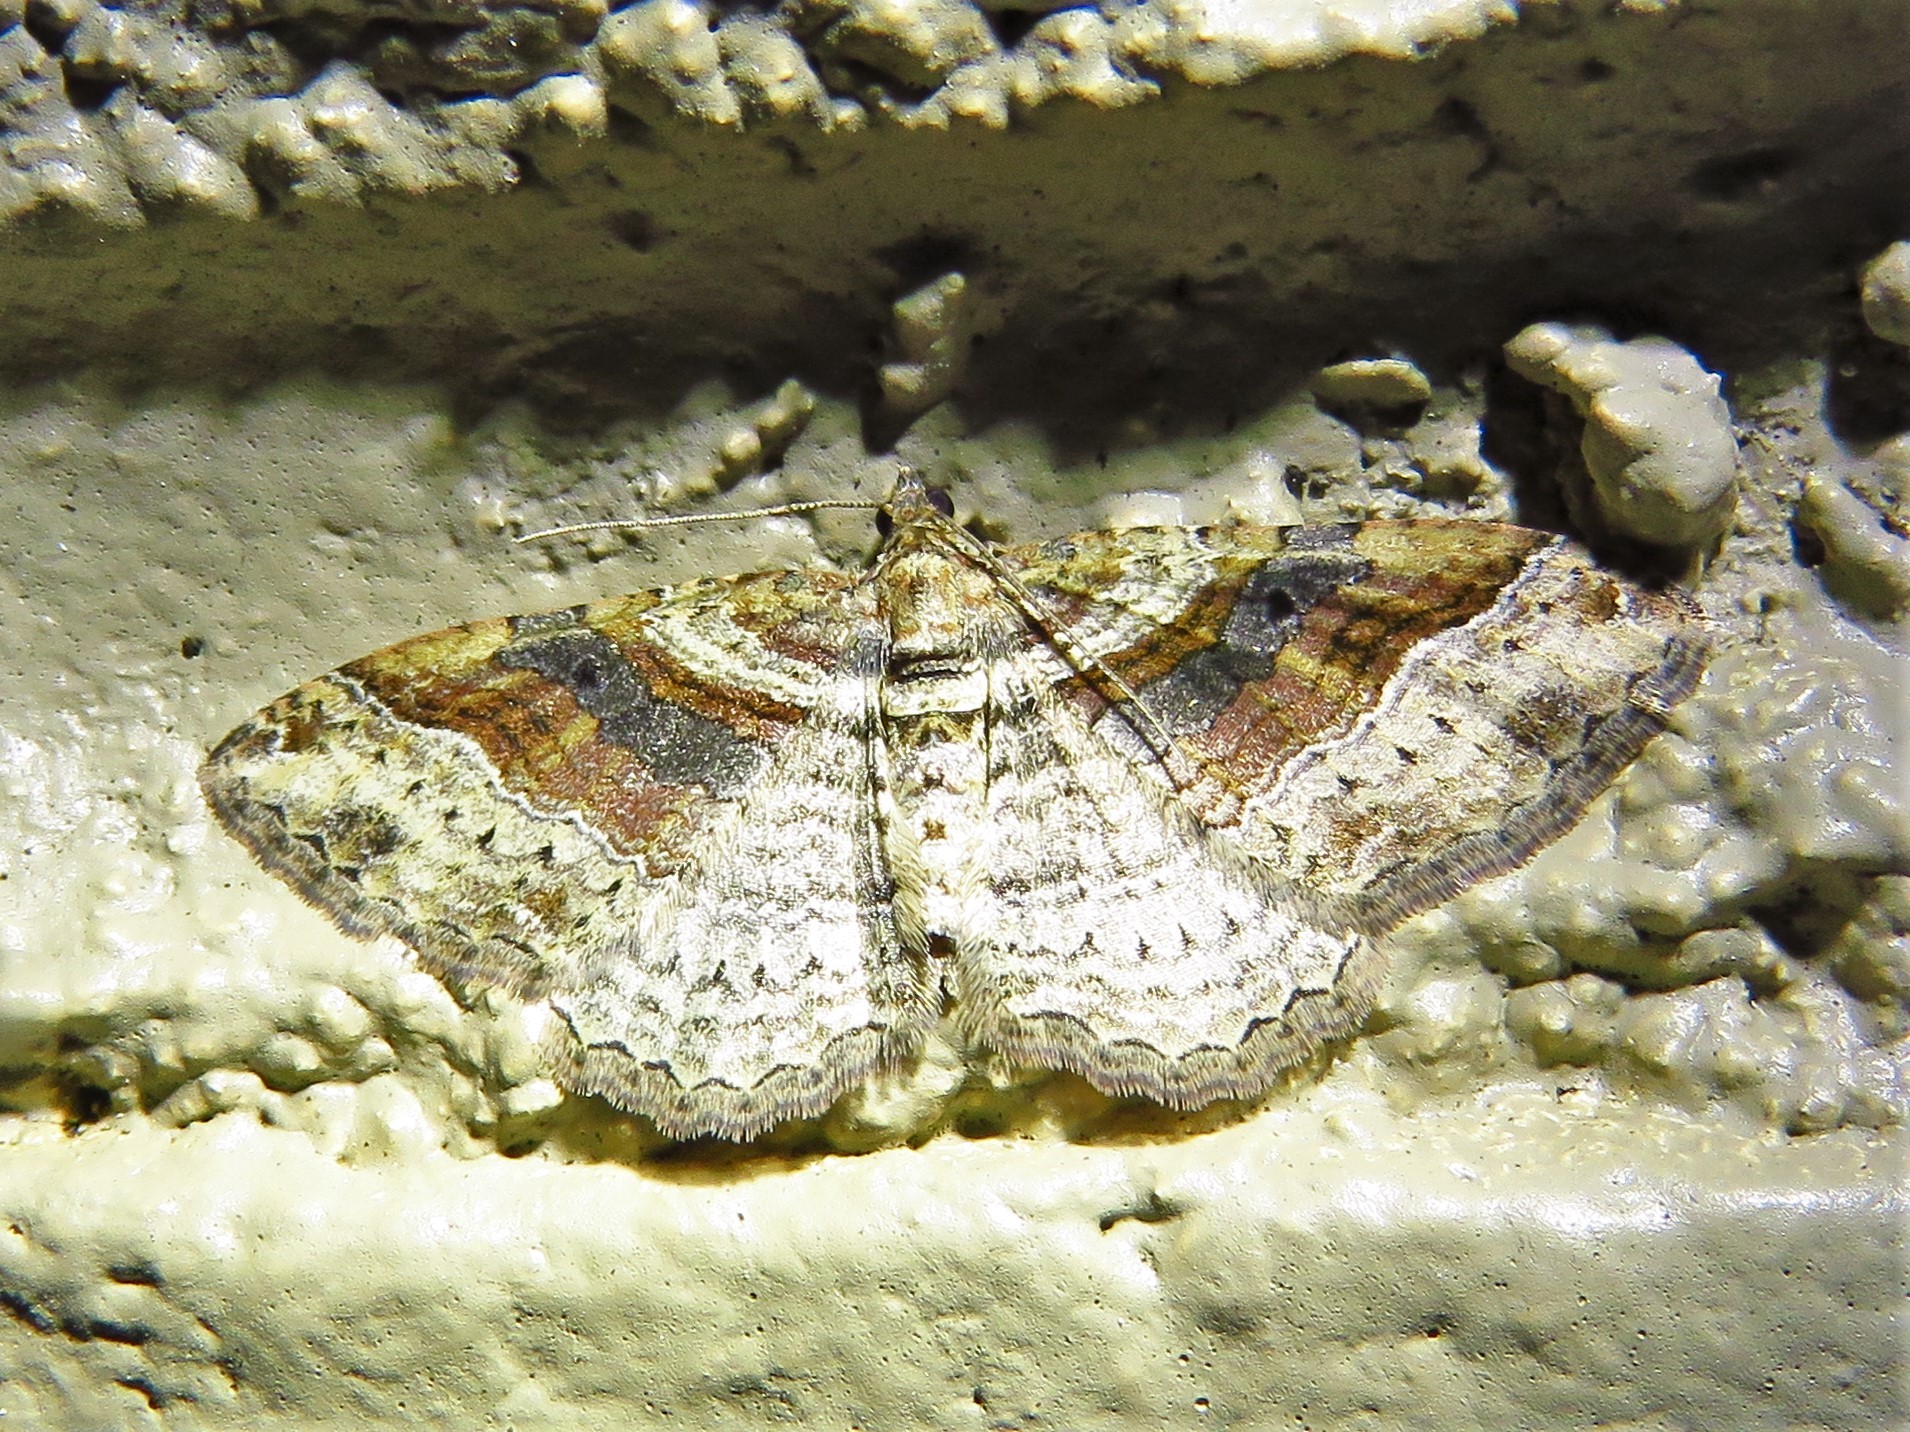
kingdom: Animalia
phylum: Arthropoda
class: Insecta
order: Lepidoptera
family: Geometridae
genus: Costaconvexa
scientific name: Costaconvexa centrostrigaria
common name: Bent-line carpet
